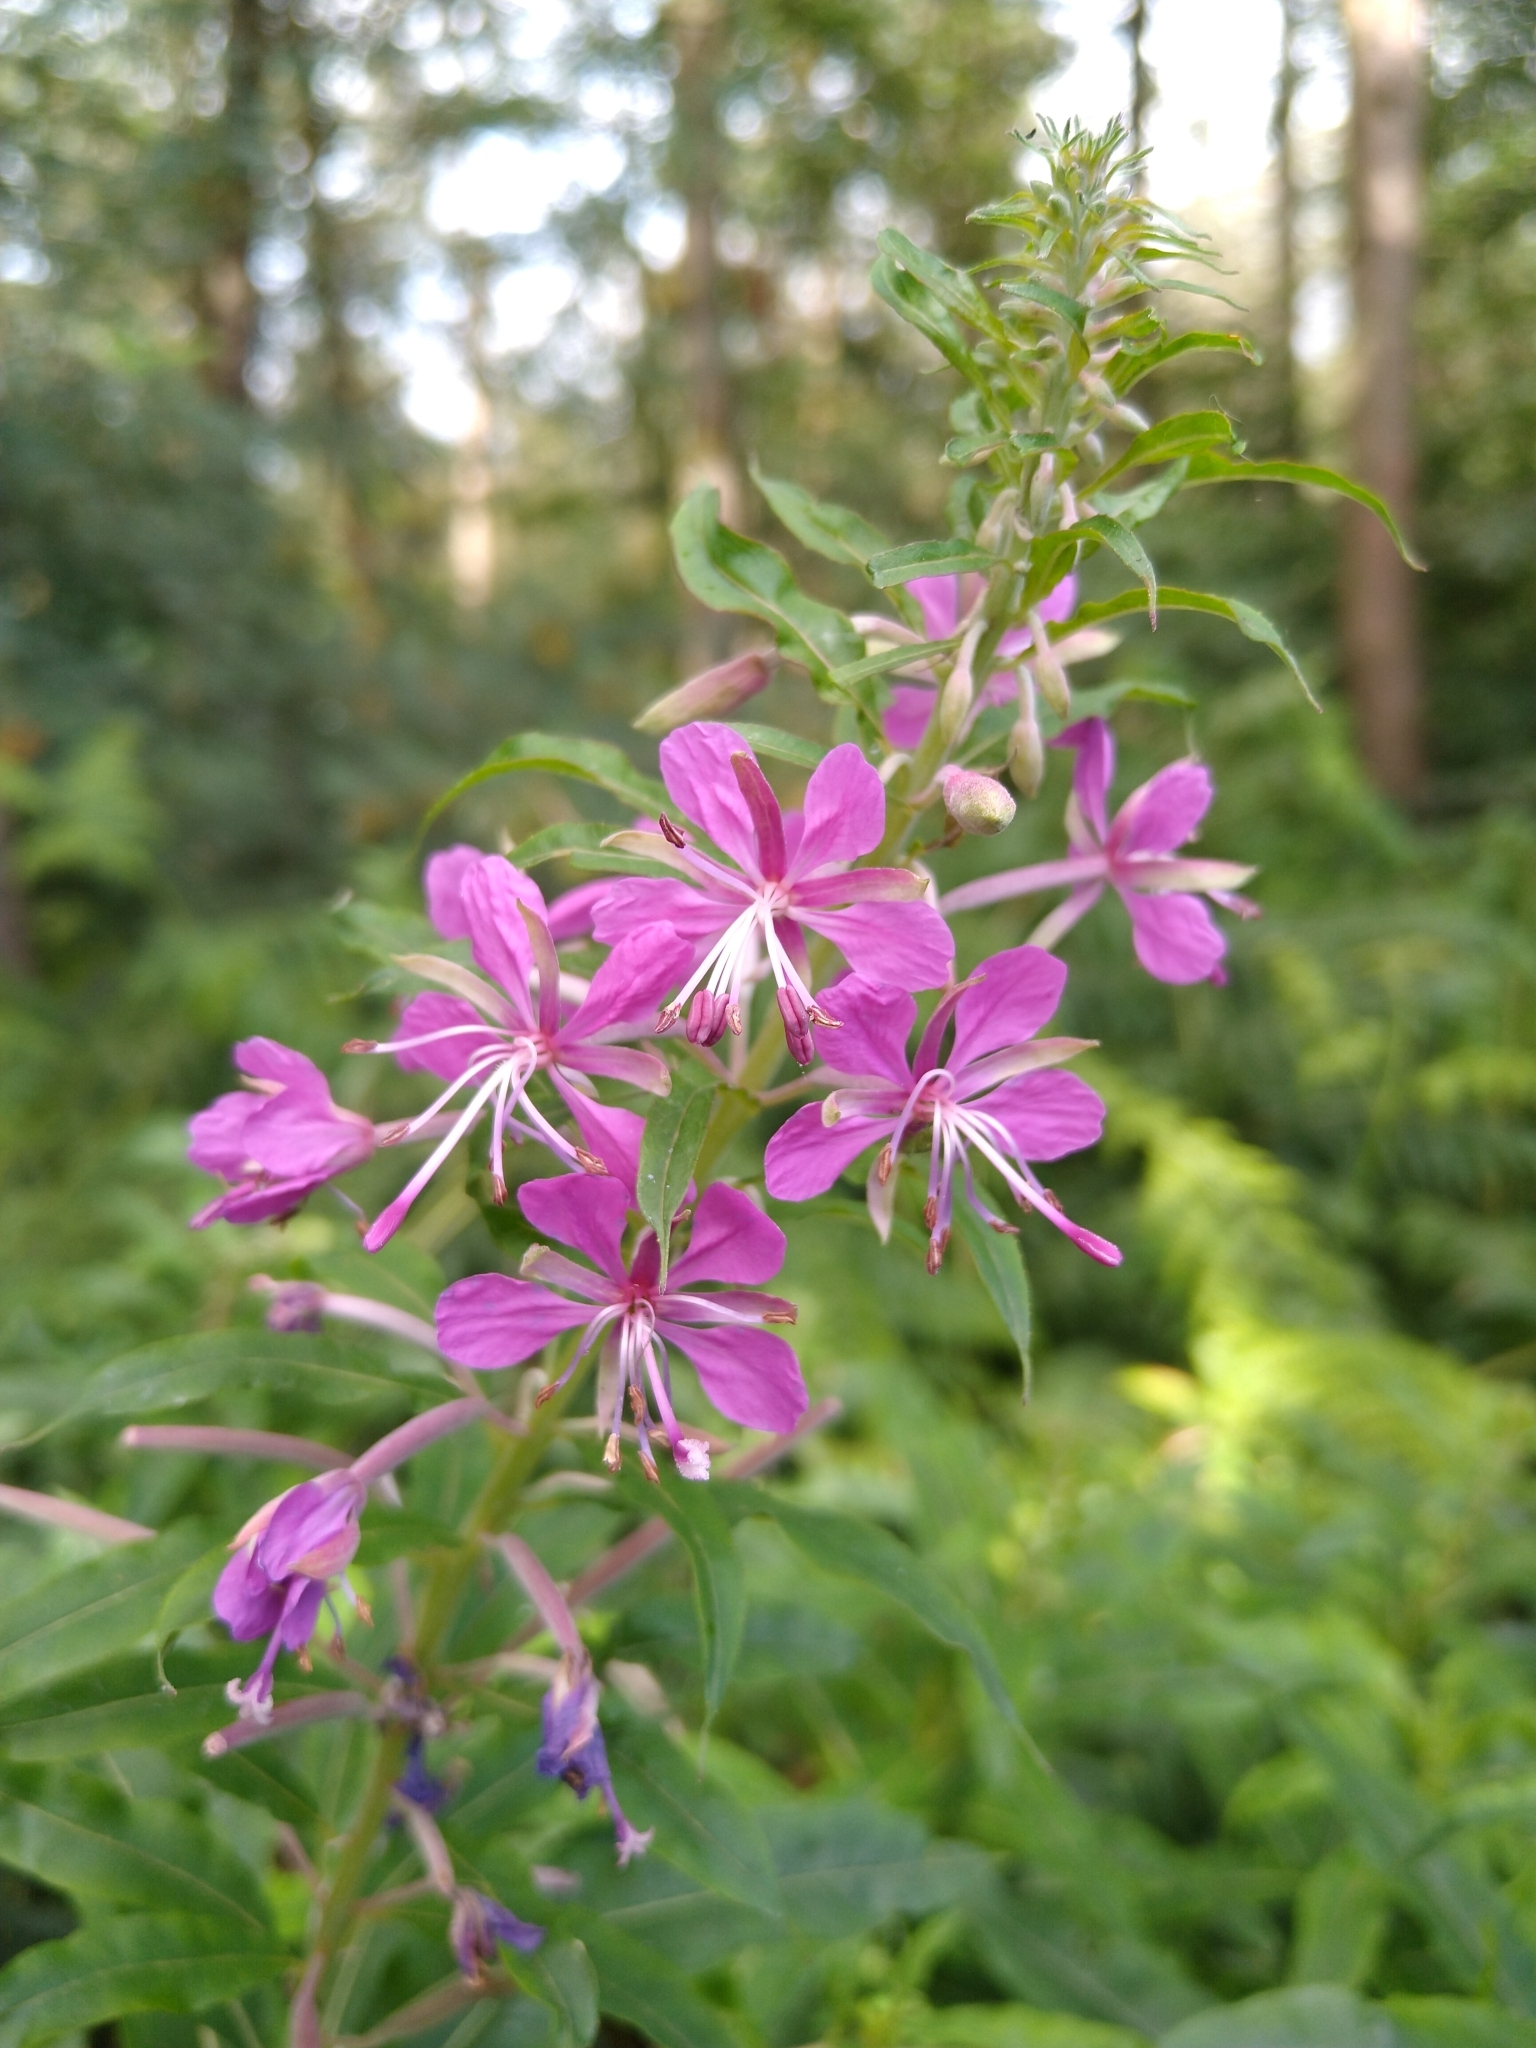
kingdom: Plantae
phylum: Tracheophyta
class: Magnoliopsida
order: Myrtales
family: Onagraceae
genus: Chamaenerion
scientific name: Chamaenerion angustifolium
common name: Fireweed
